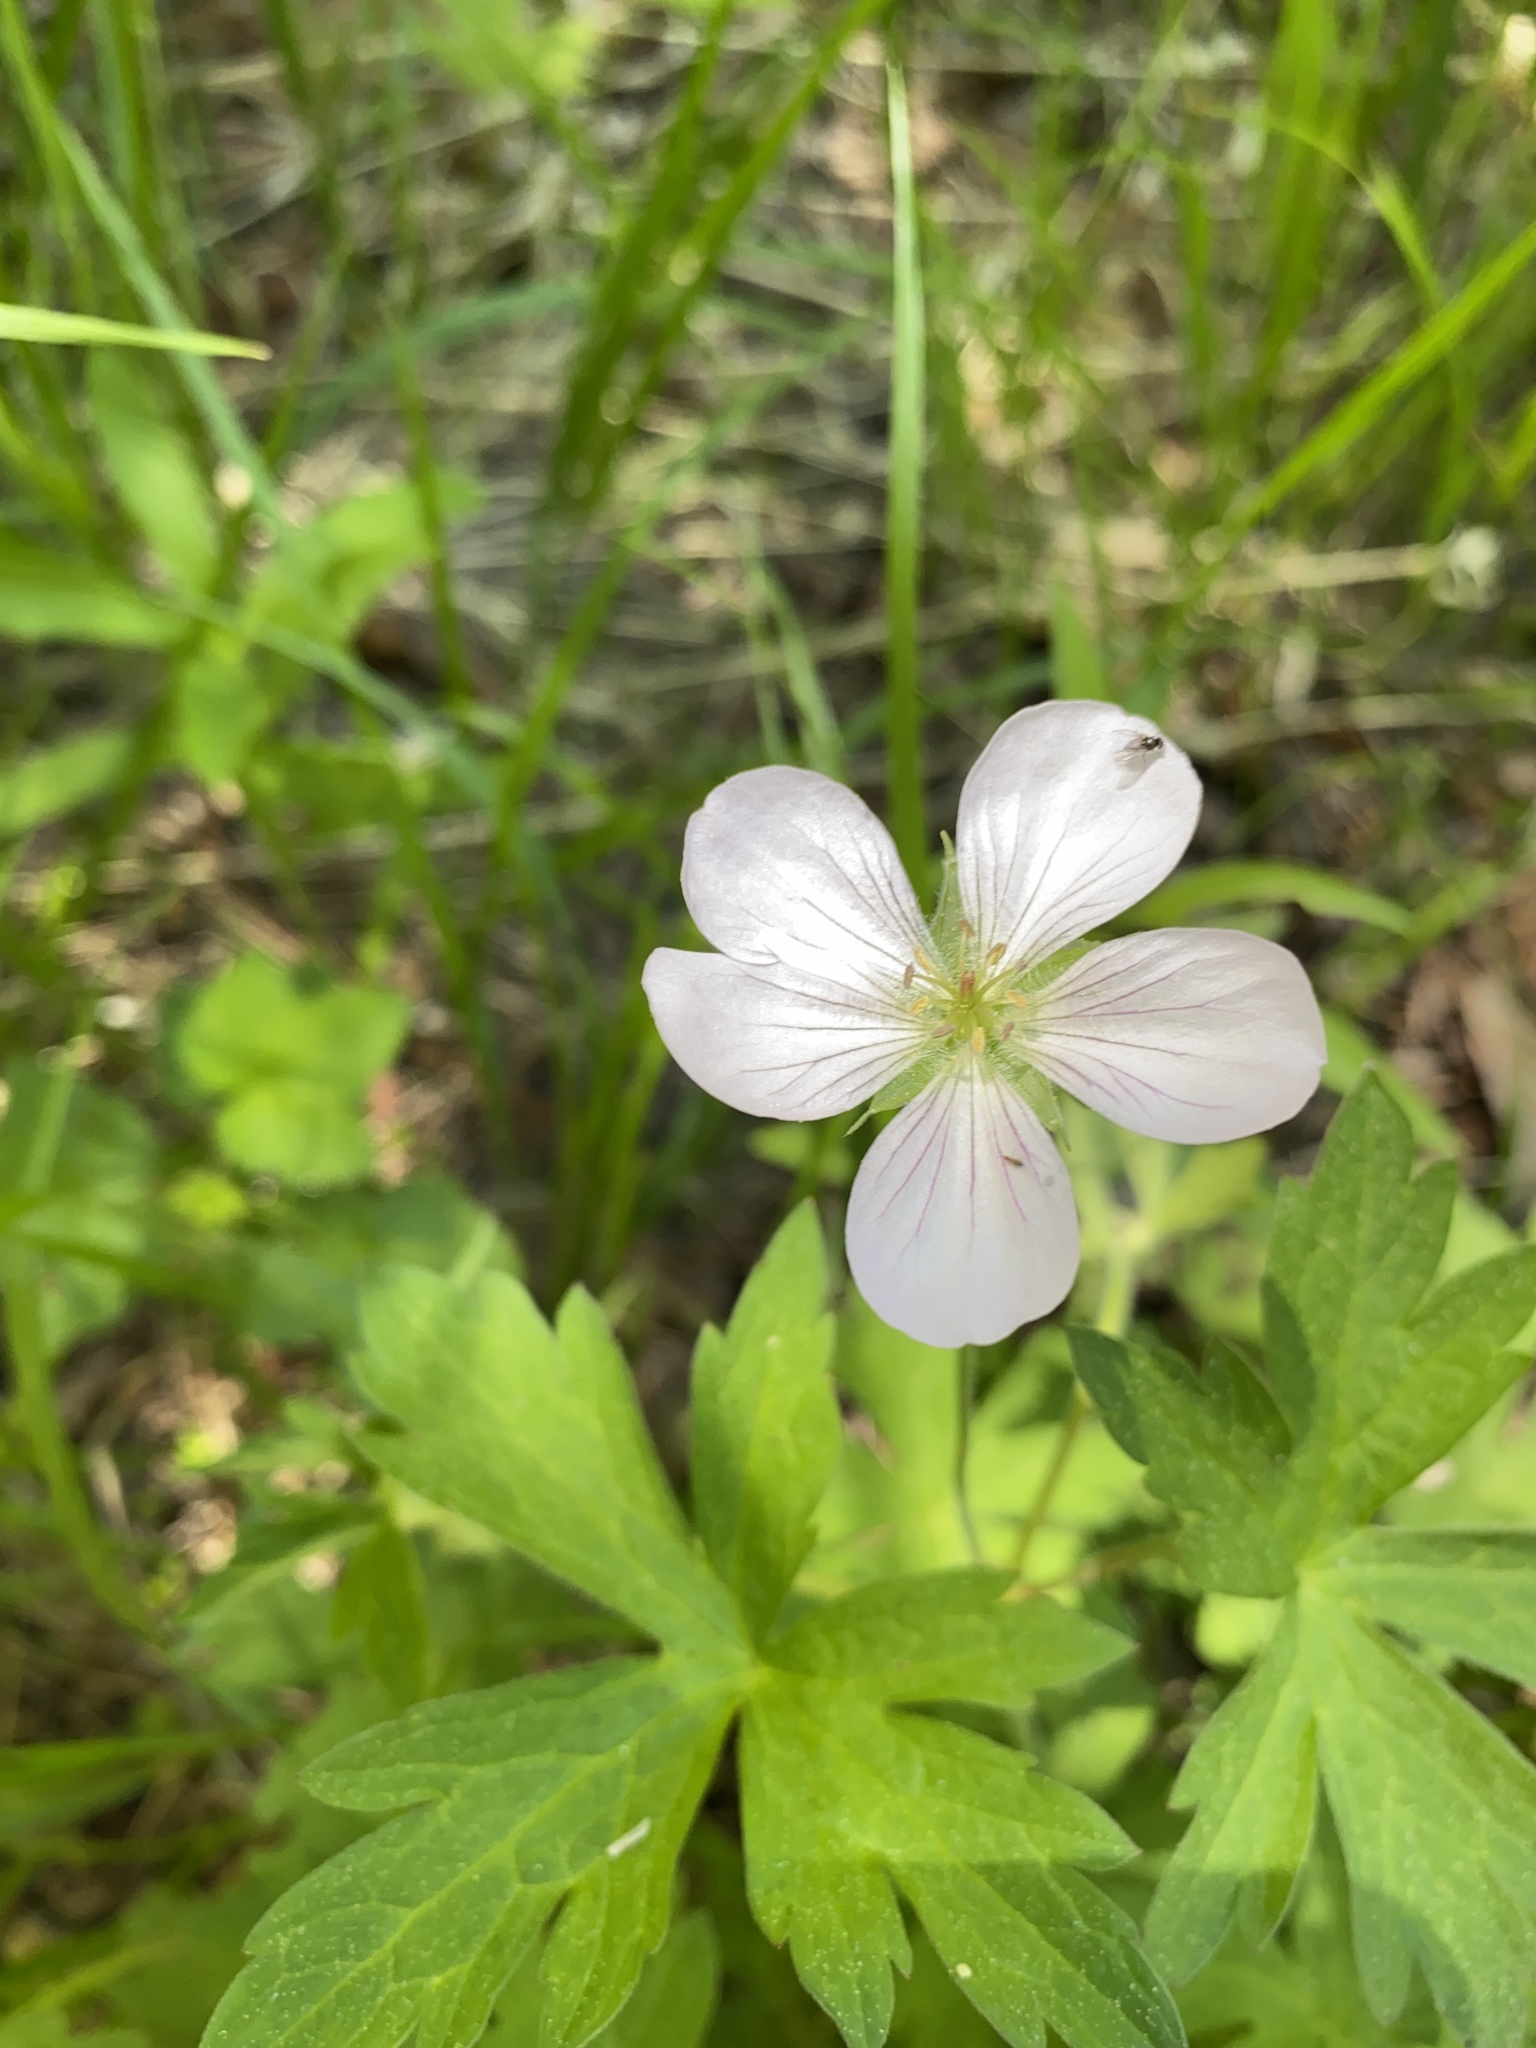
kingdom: Plantae
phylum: Tracheophyta
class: Magnoliopsida
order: Geraniales
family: Geraniaceae
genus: Geranium
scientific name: Geranium richardsonii
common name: Richardson's crane's-bill
